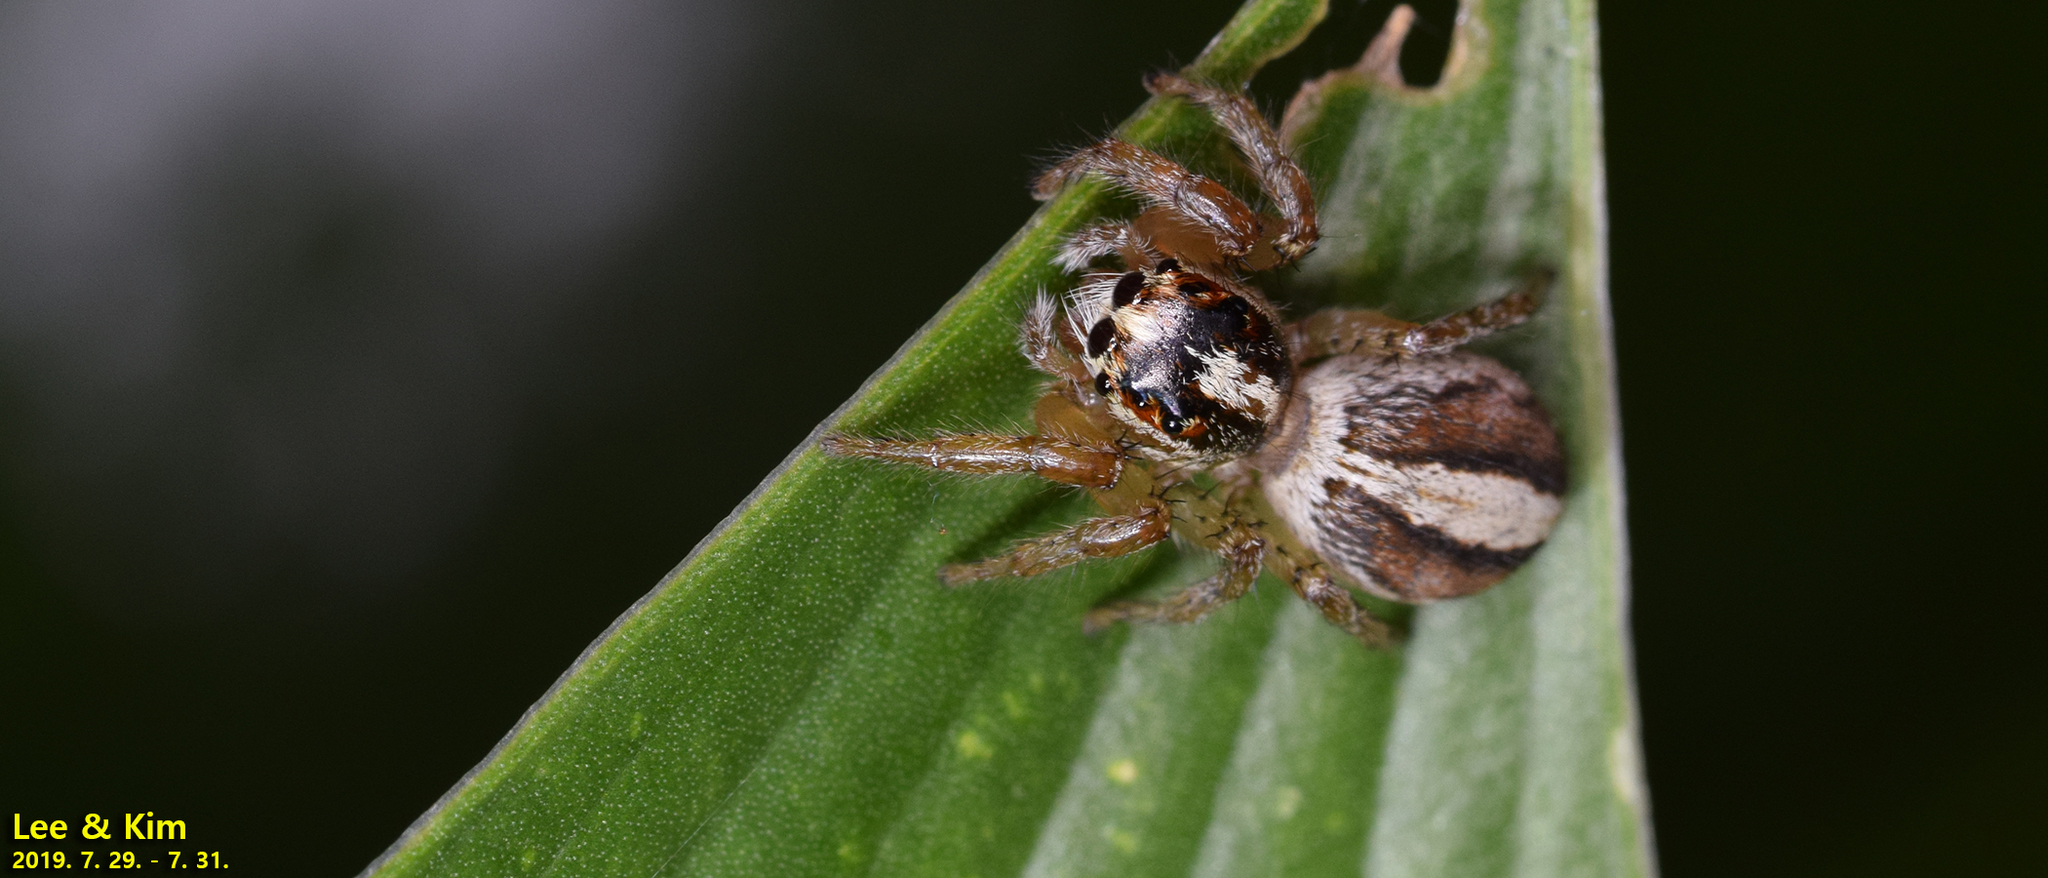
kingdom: Animalia
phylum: Arthropoda
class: Arachnida
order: Araneae
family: Salticidae
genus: Plexippoides
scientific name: Plexippoides regius
